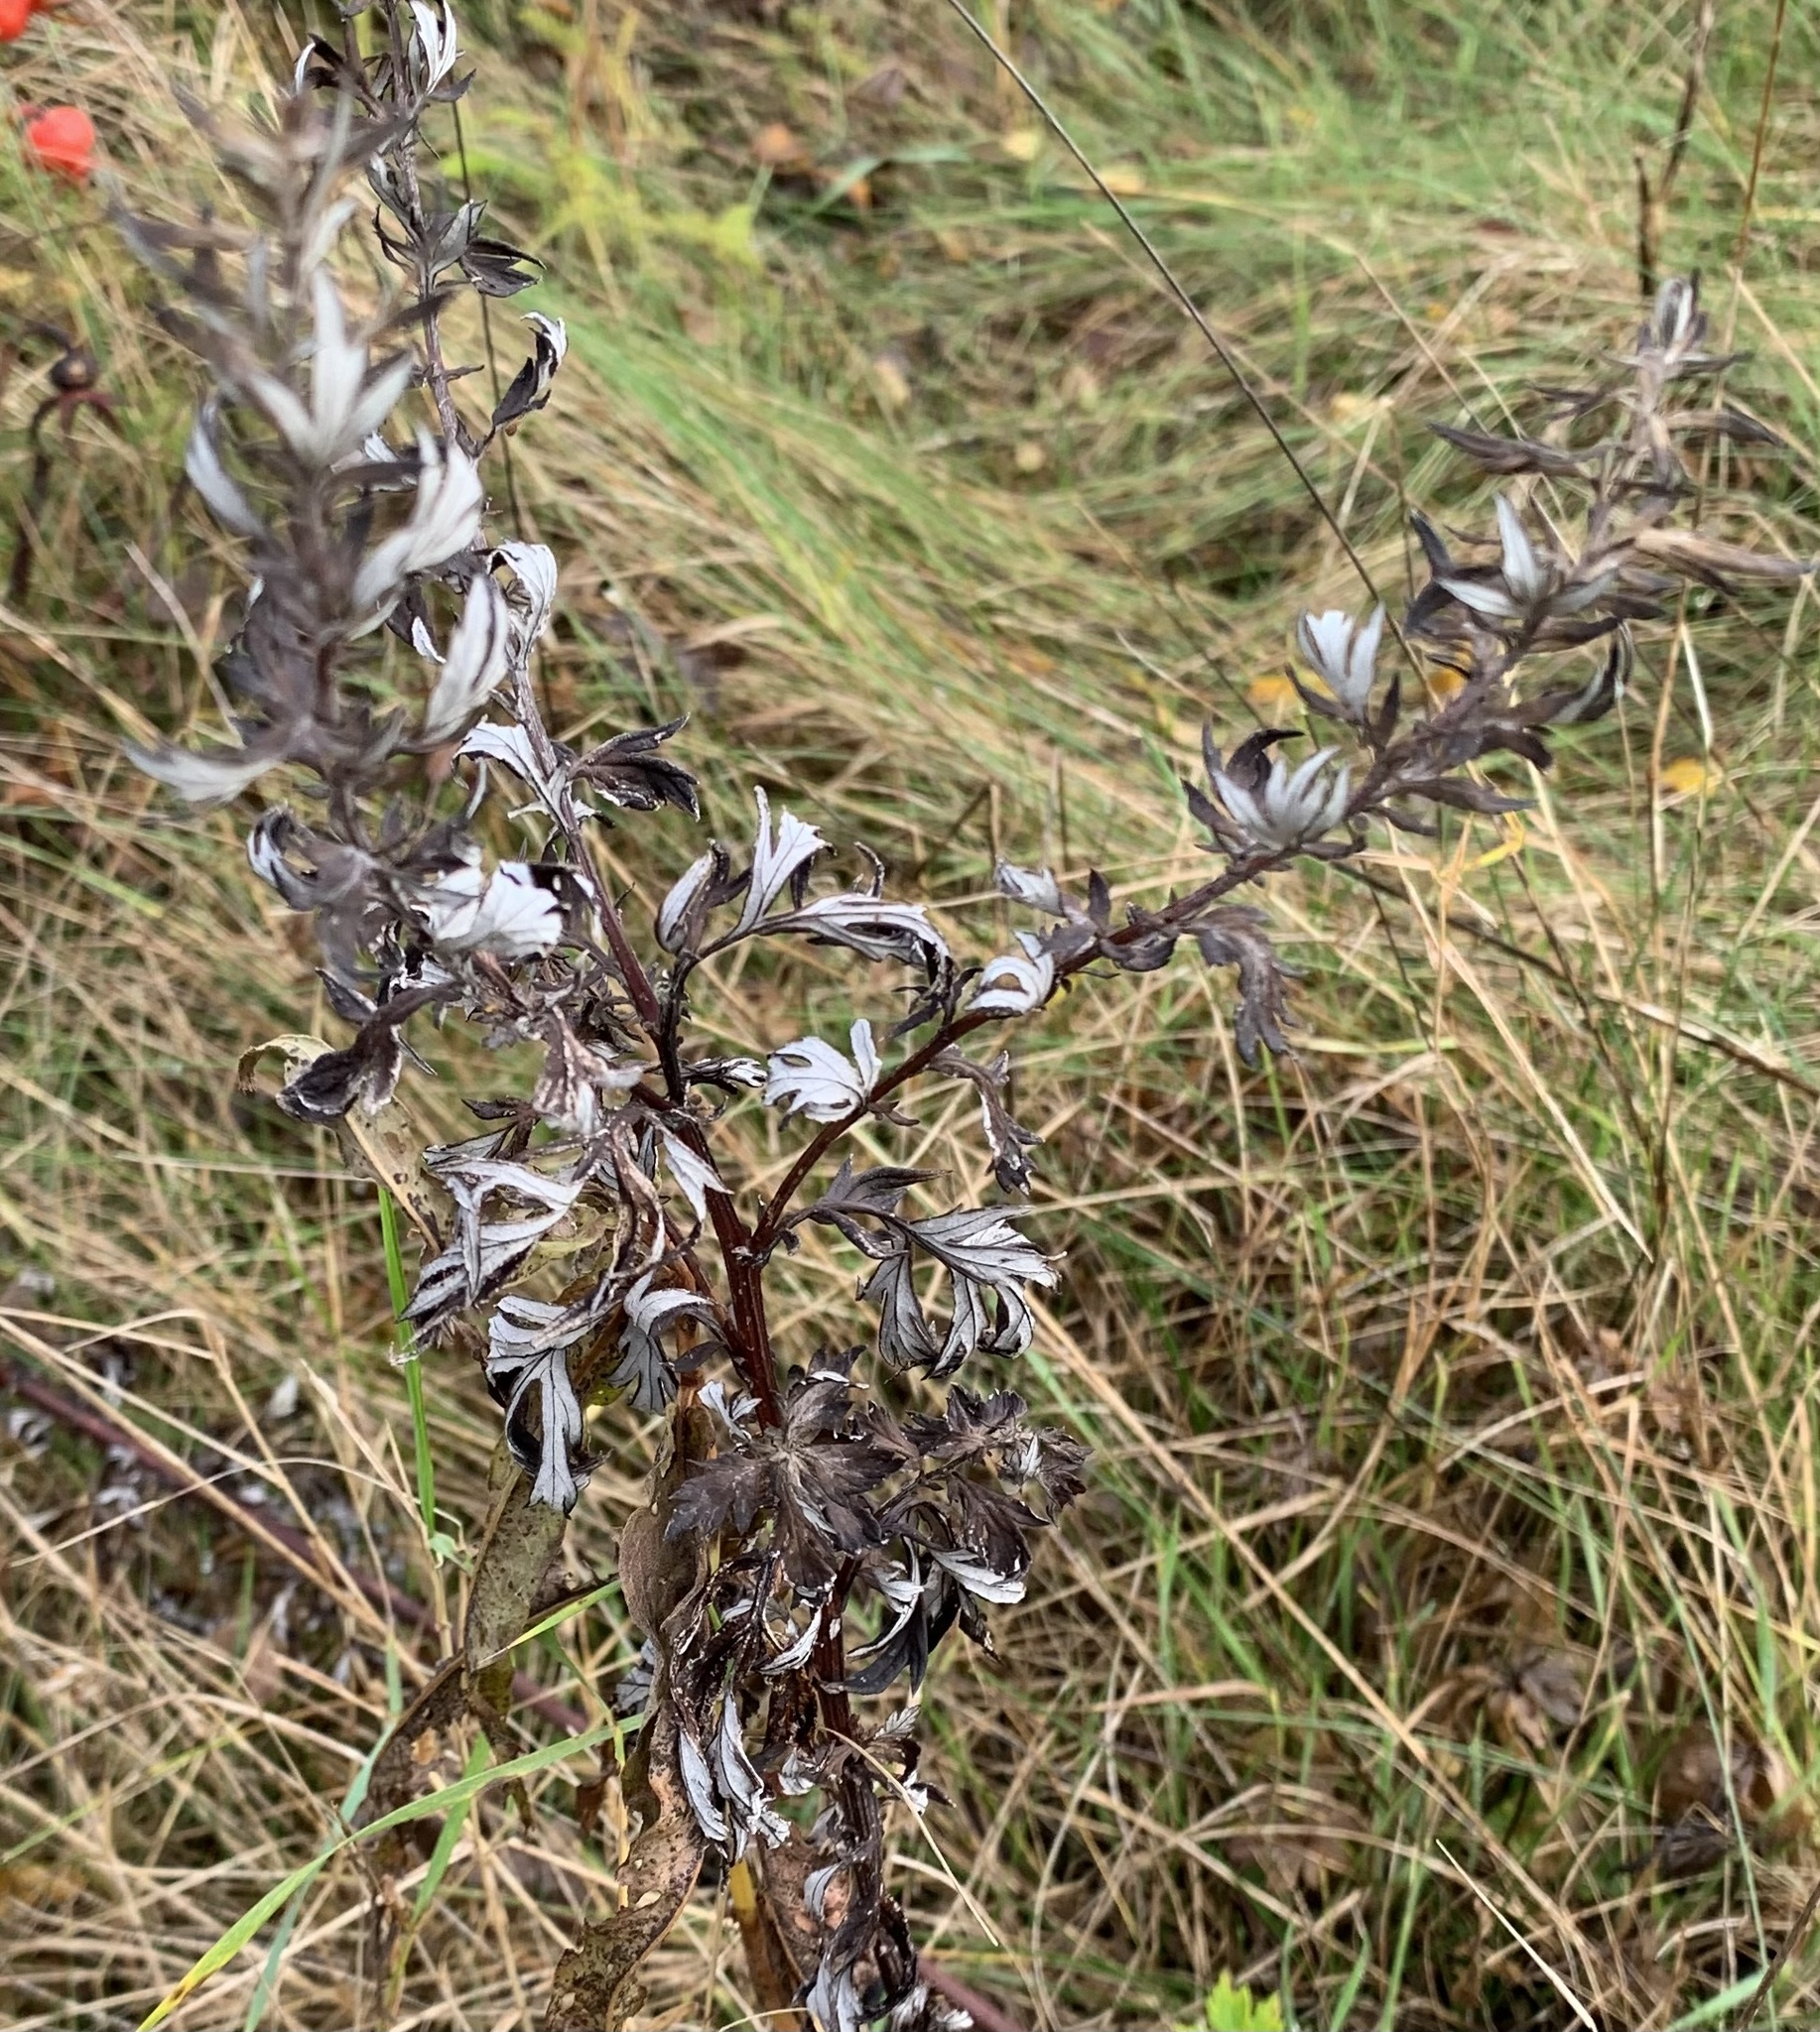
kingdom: Plantae
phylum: Tracheophyta
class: Magnoliopsida
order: Asterales
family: Asteraceae
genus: Artemisia
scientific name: Artemisia vulgaris
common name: Mugwort
